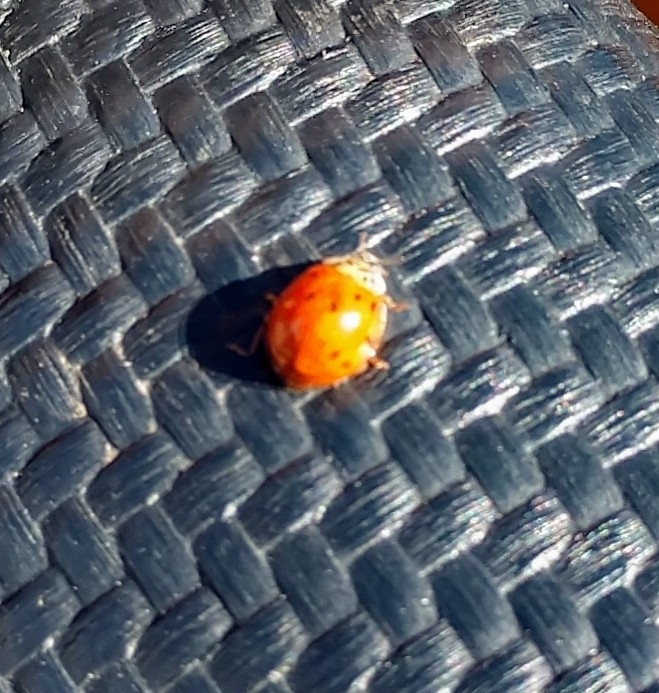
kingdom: Animalia
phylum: Arthropoda
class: Insecta
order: Coleoptera
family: Coccinellidae
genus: Harmonia
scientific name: Harmonia axyridis
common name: Harlequin ladybird
